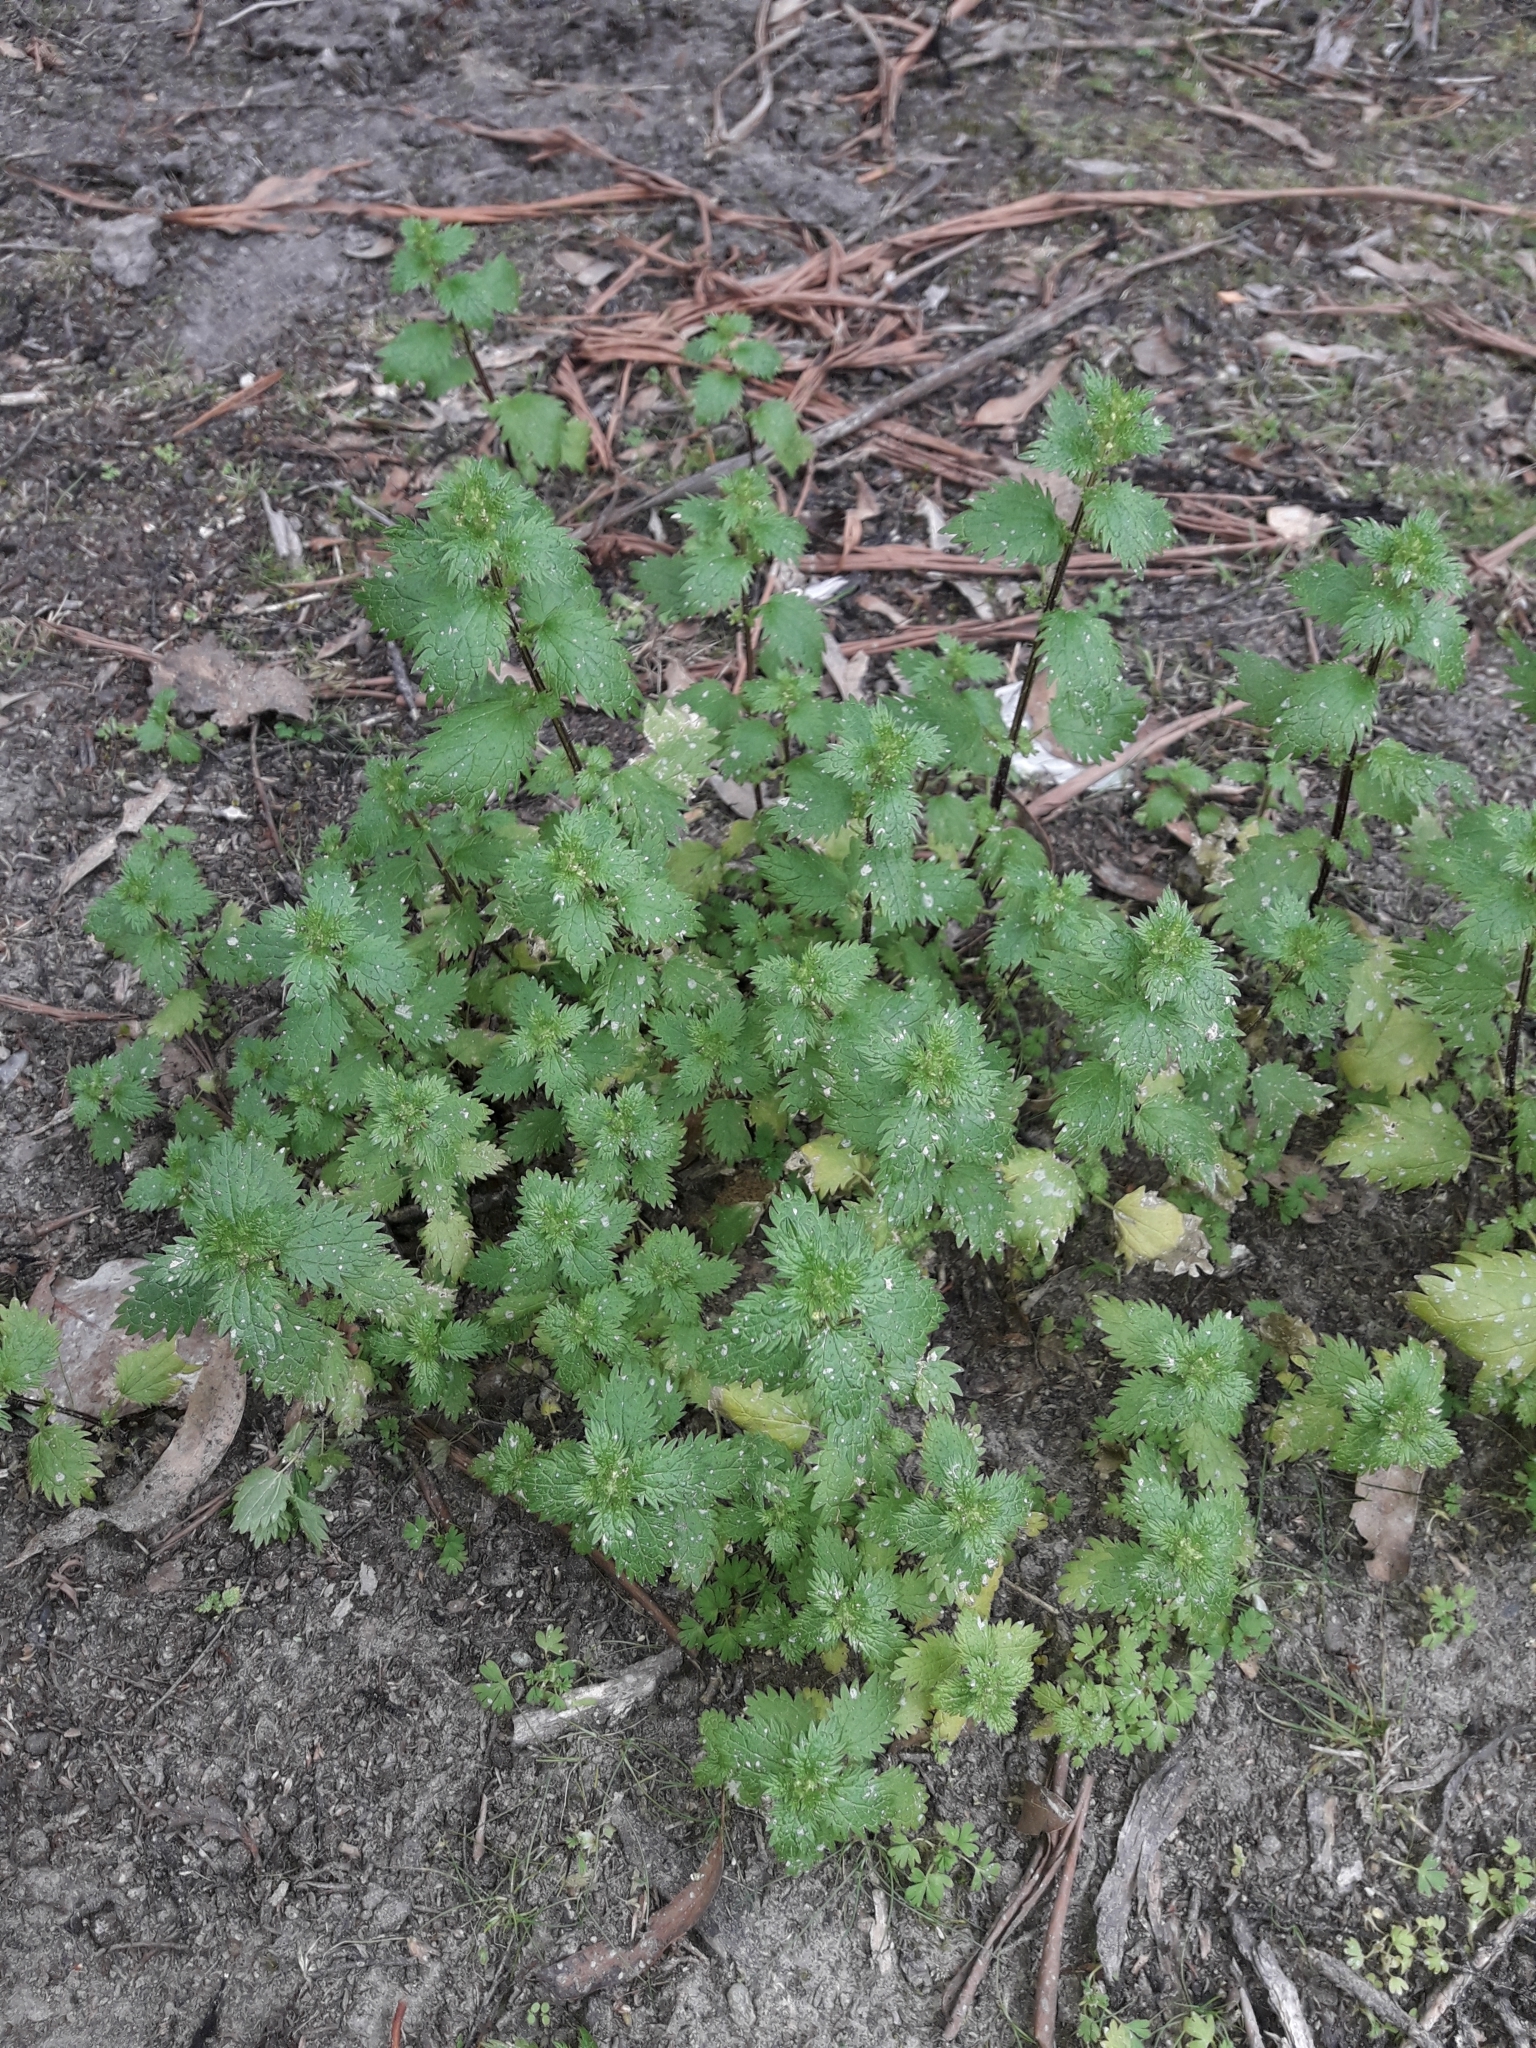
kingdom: Plantae
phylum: Tracheophyta
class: Magnoliopsida
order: Rosales
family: Urticaceae
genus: Urtica
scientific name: Urtica urens
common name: Dwarf nettle
